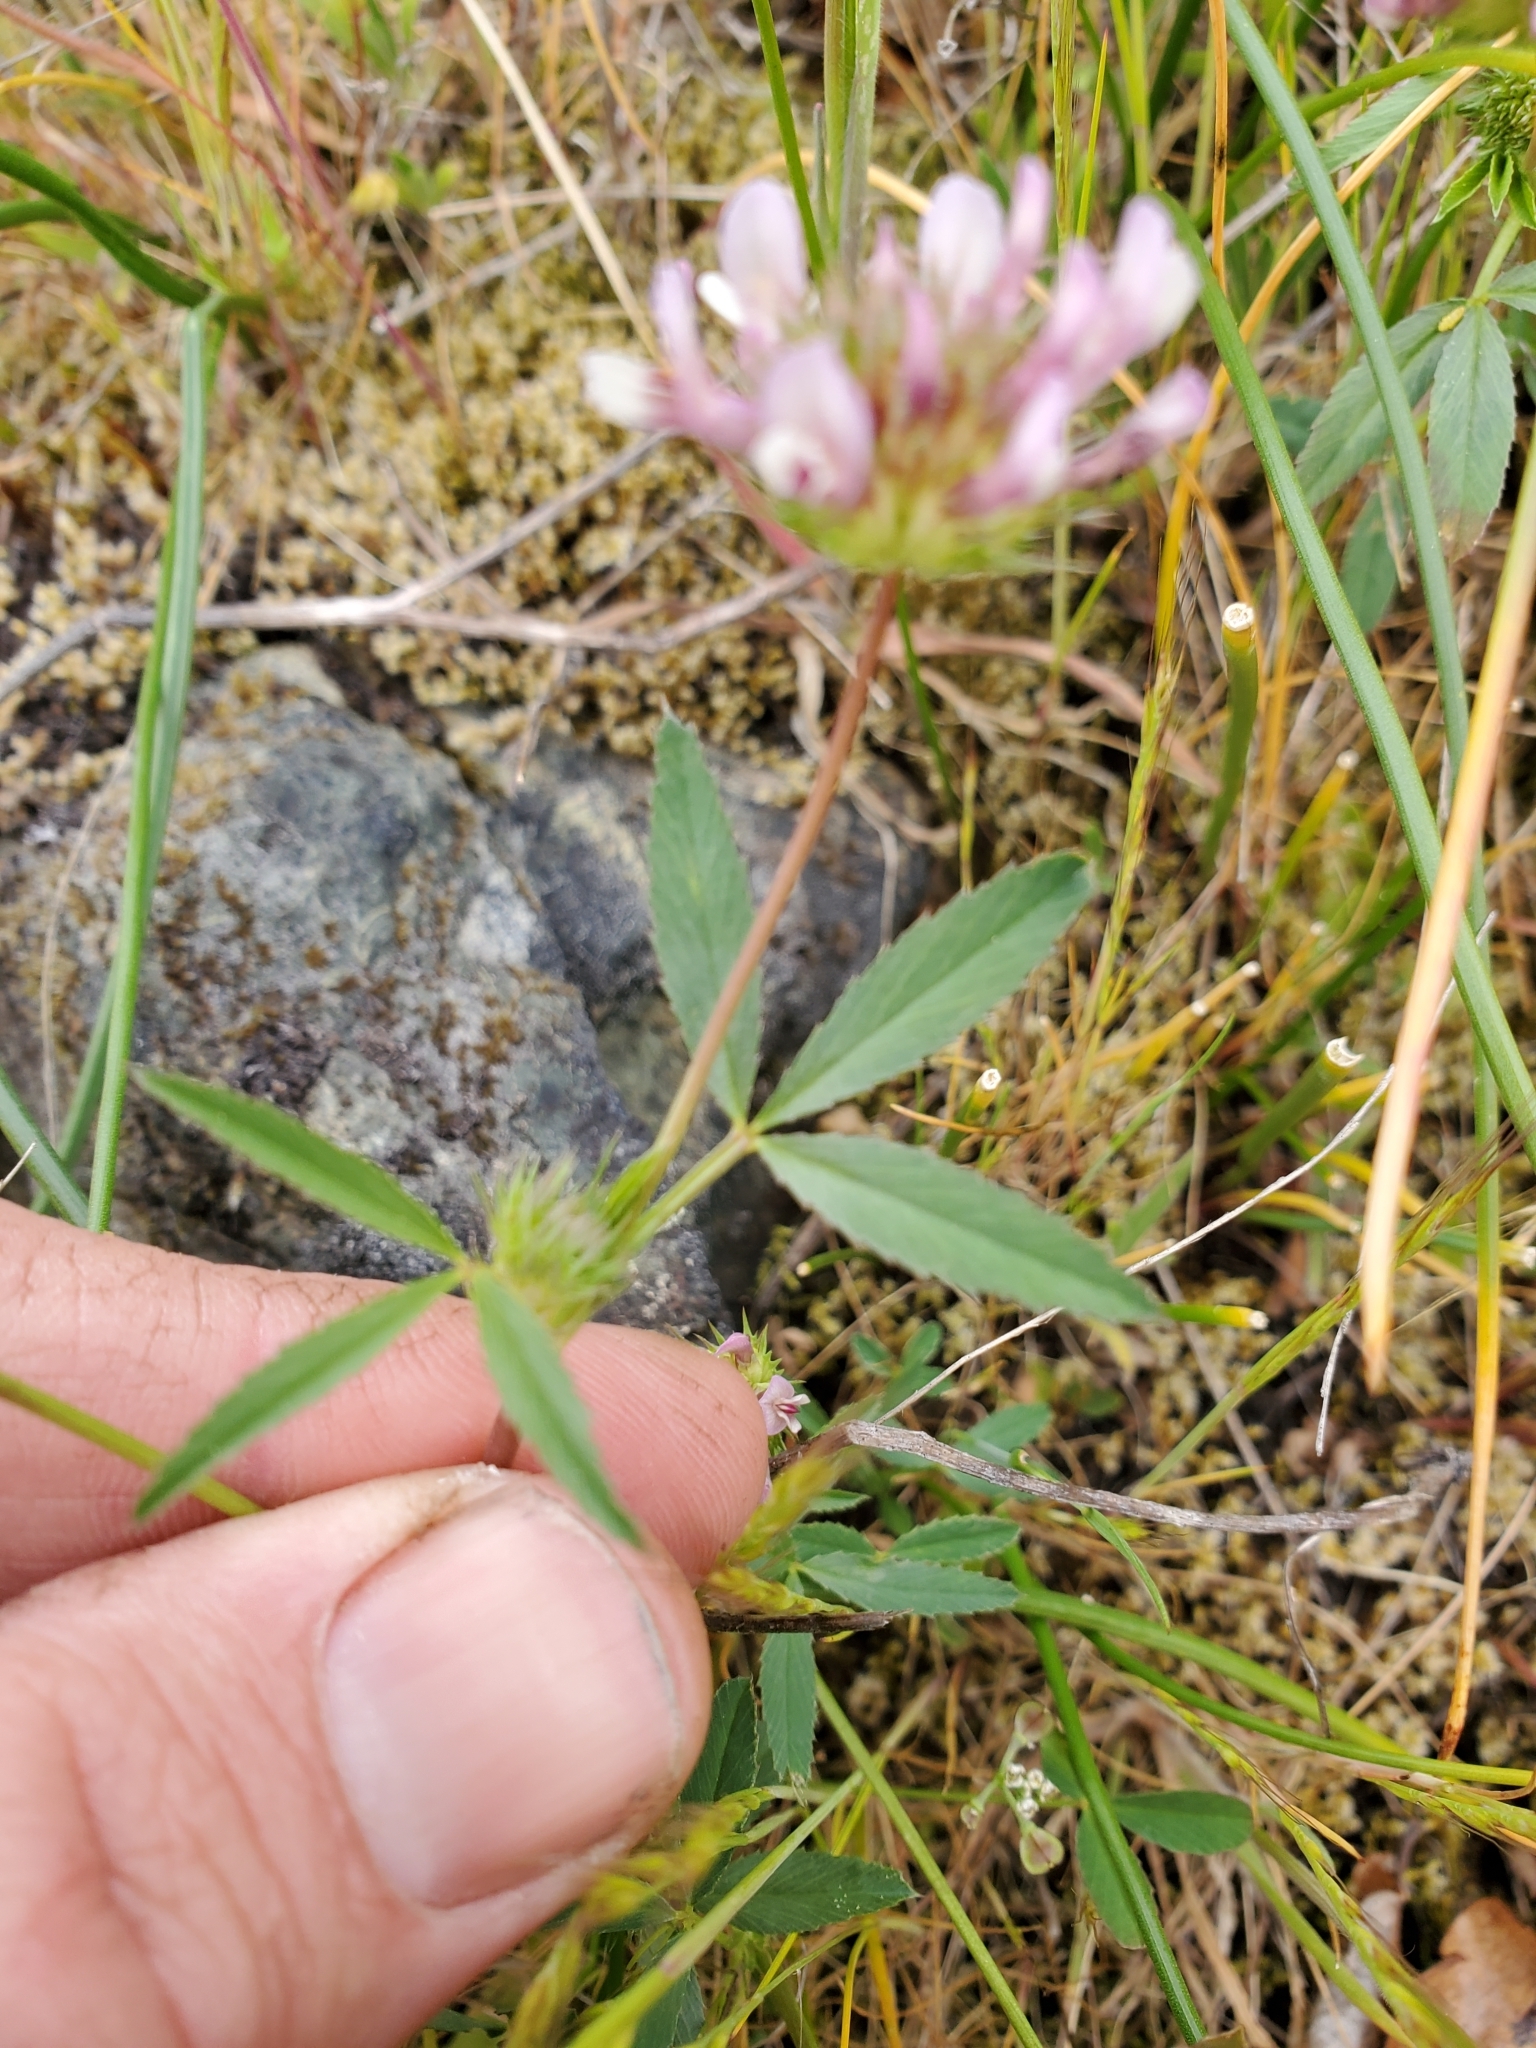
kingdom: Plantae
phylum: Tracheophyta
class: Magnoliopsida
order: Fabales
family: Fabaceae
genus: Trifolium
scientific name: Trifolium willdenovii
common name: Tomcat clover
